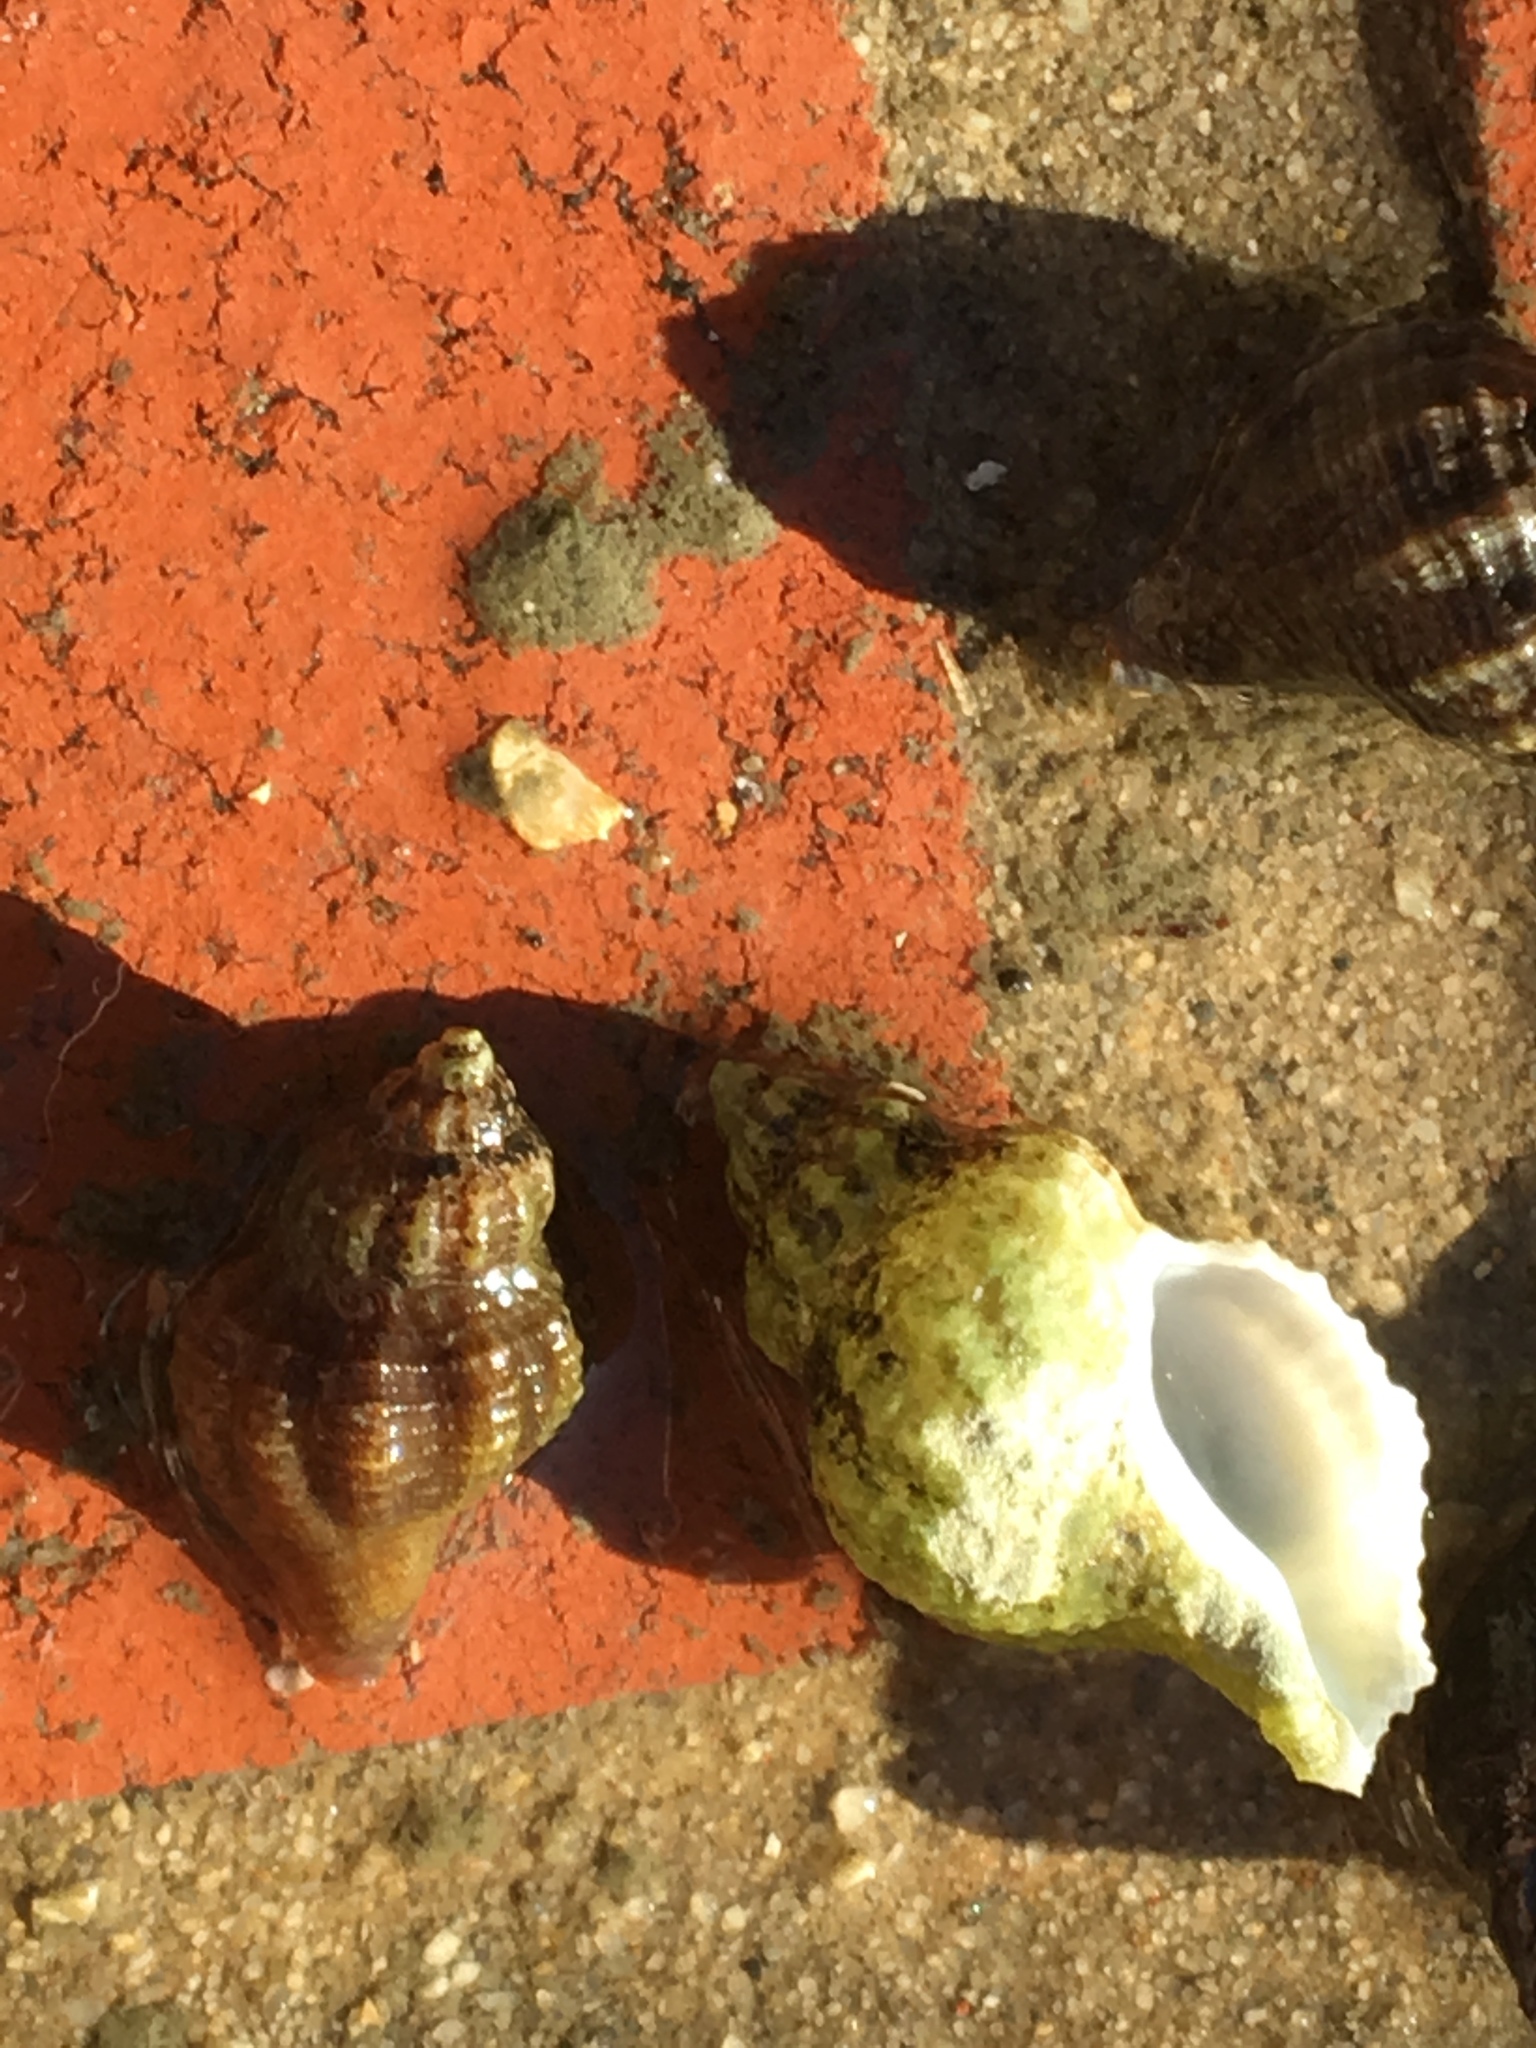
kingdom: Animalia
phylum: Mollusca
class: Gastropoda
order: Neogastropoda
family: Muricidae
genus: Urosalpinx
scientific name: Urosalpinx cinerea
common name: American sting winkle
